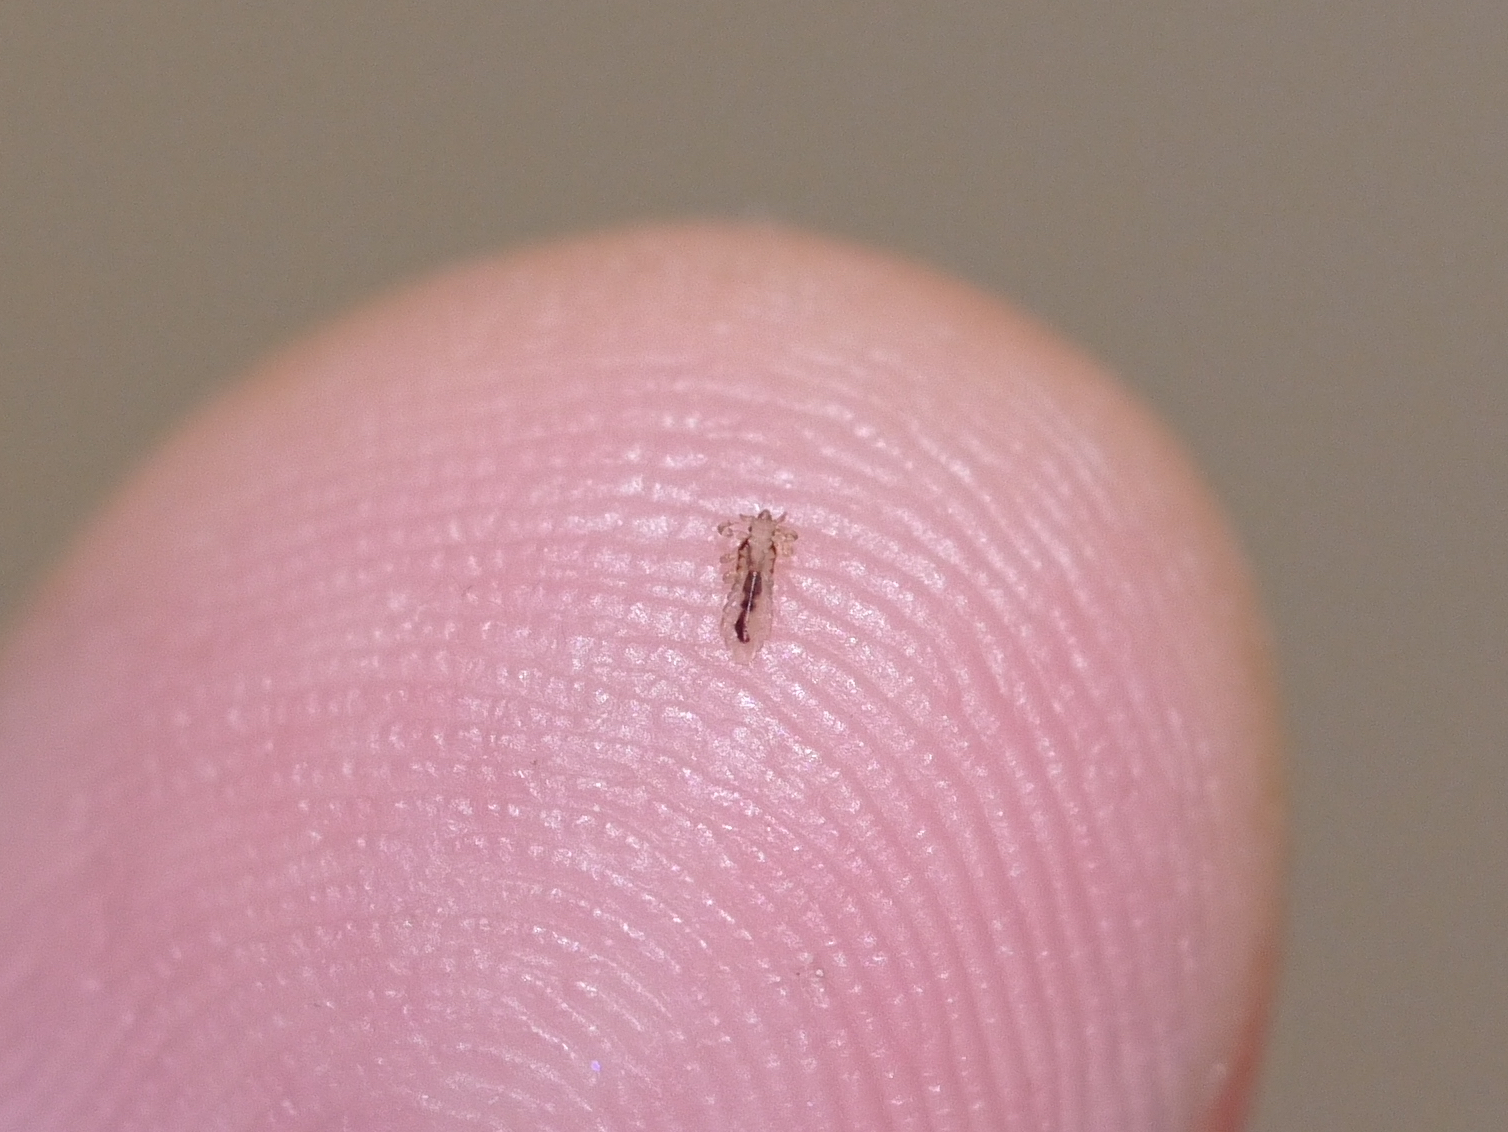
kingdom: Animalia
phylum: Arthropoda
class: Insecta
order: Psocodea
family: Pediculidae
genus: Pediculus
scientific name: Pediculus humanus
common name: Body louse
